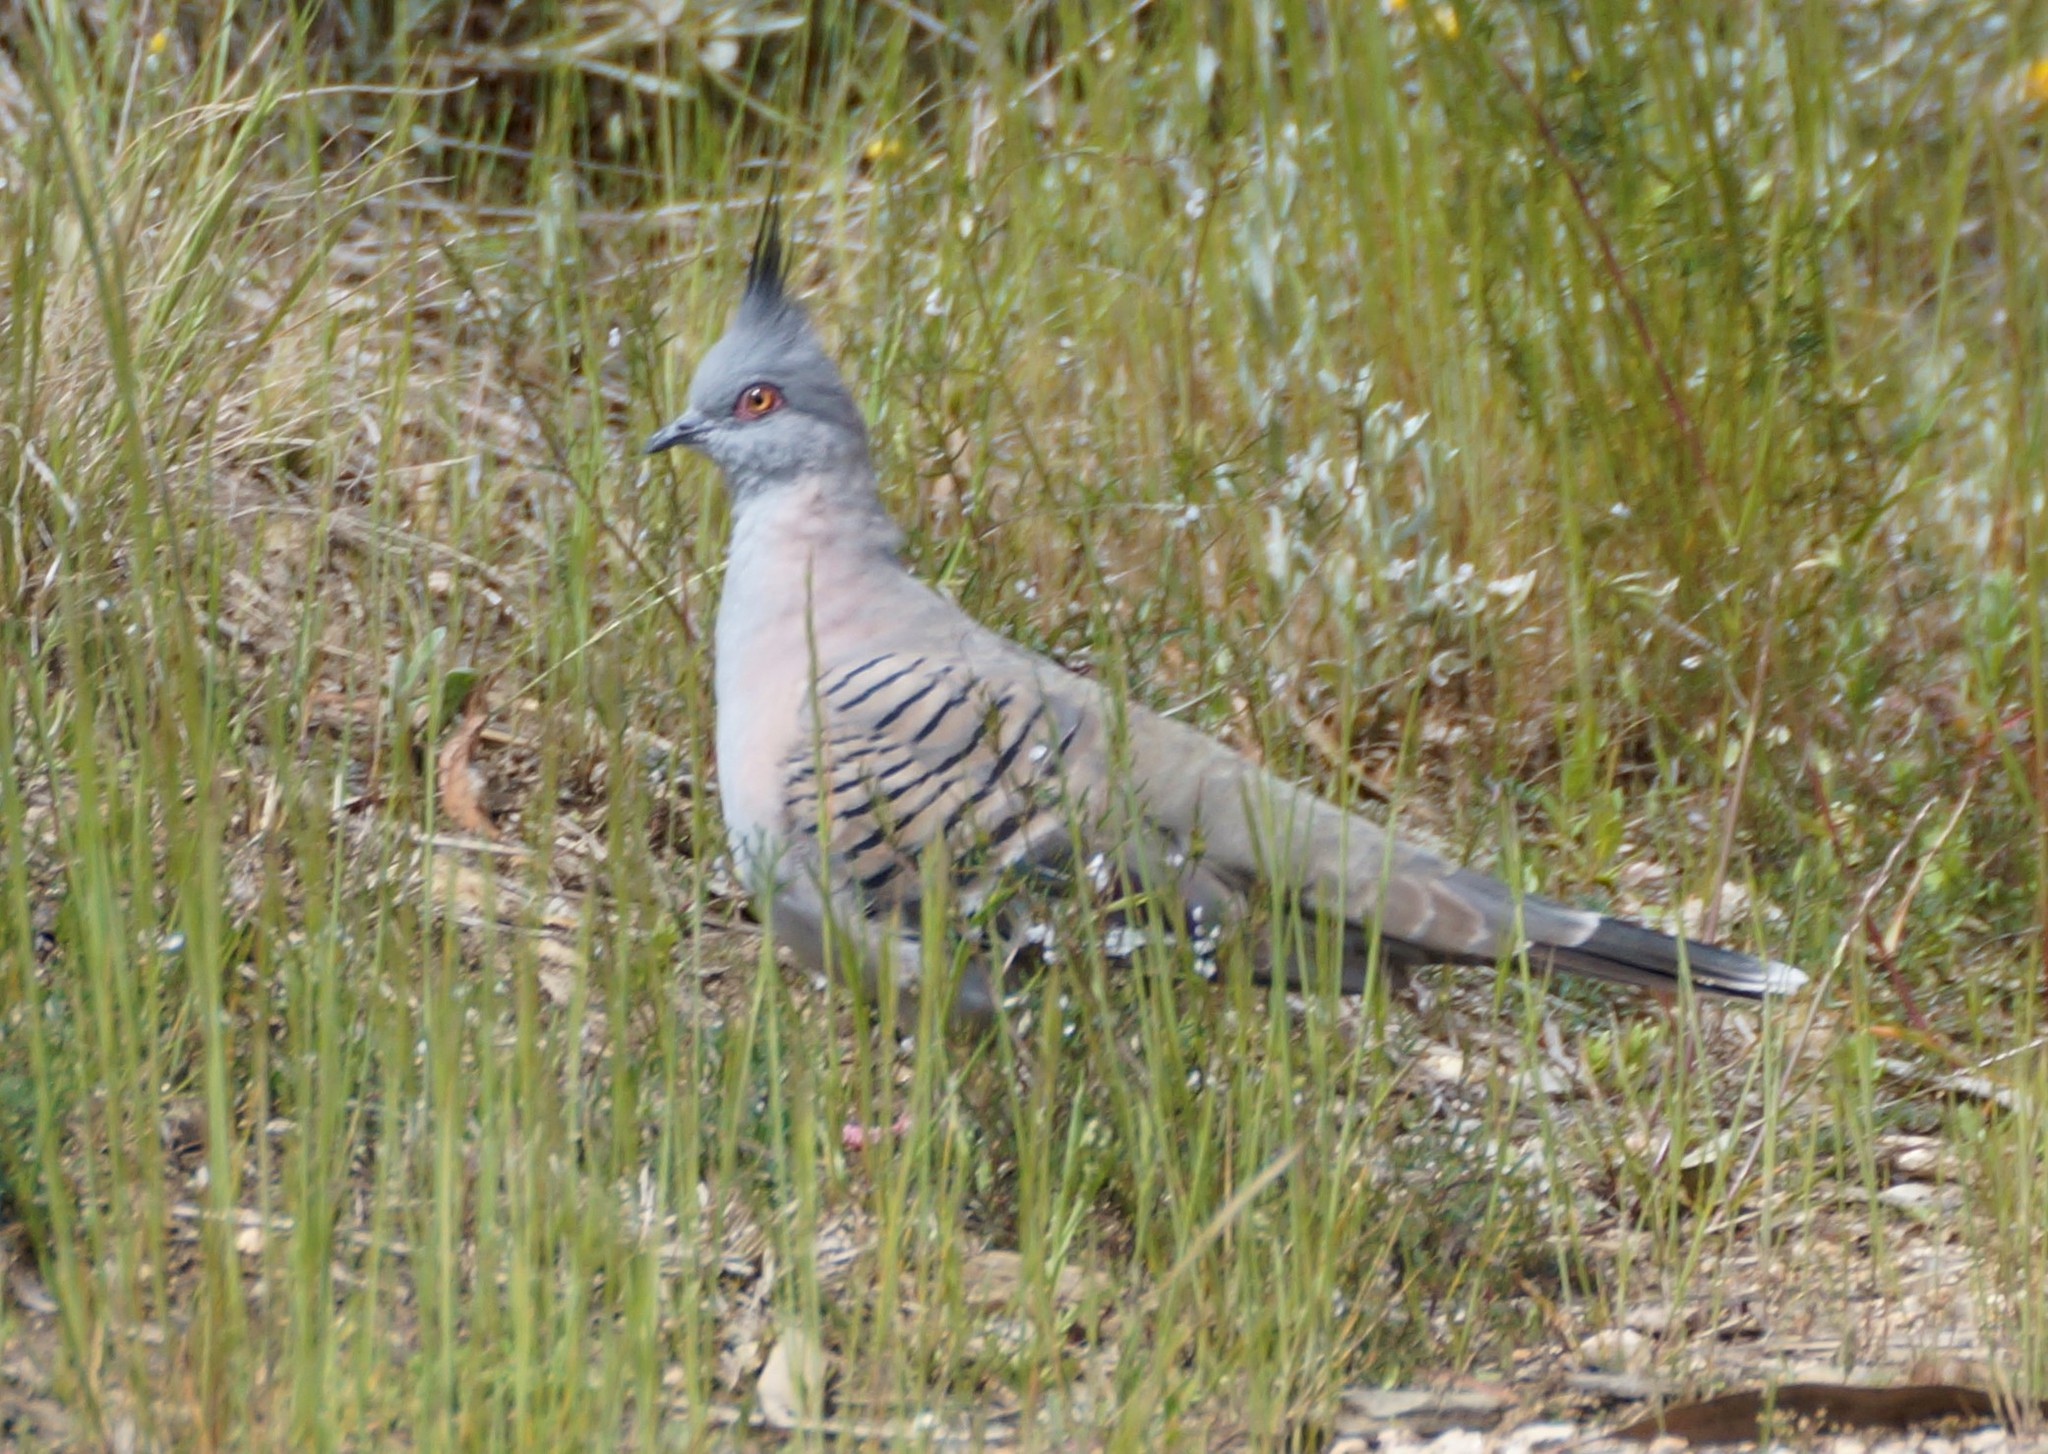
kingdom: Animalia
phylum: Chordata
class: Aves
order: Columbiformes
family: Columbidae
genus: Ocyphaps
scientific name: Ocyphaps lophotes
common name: Crested pigeon
